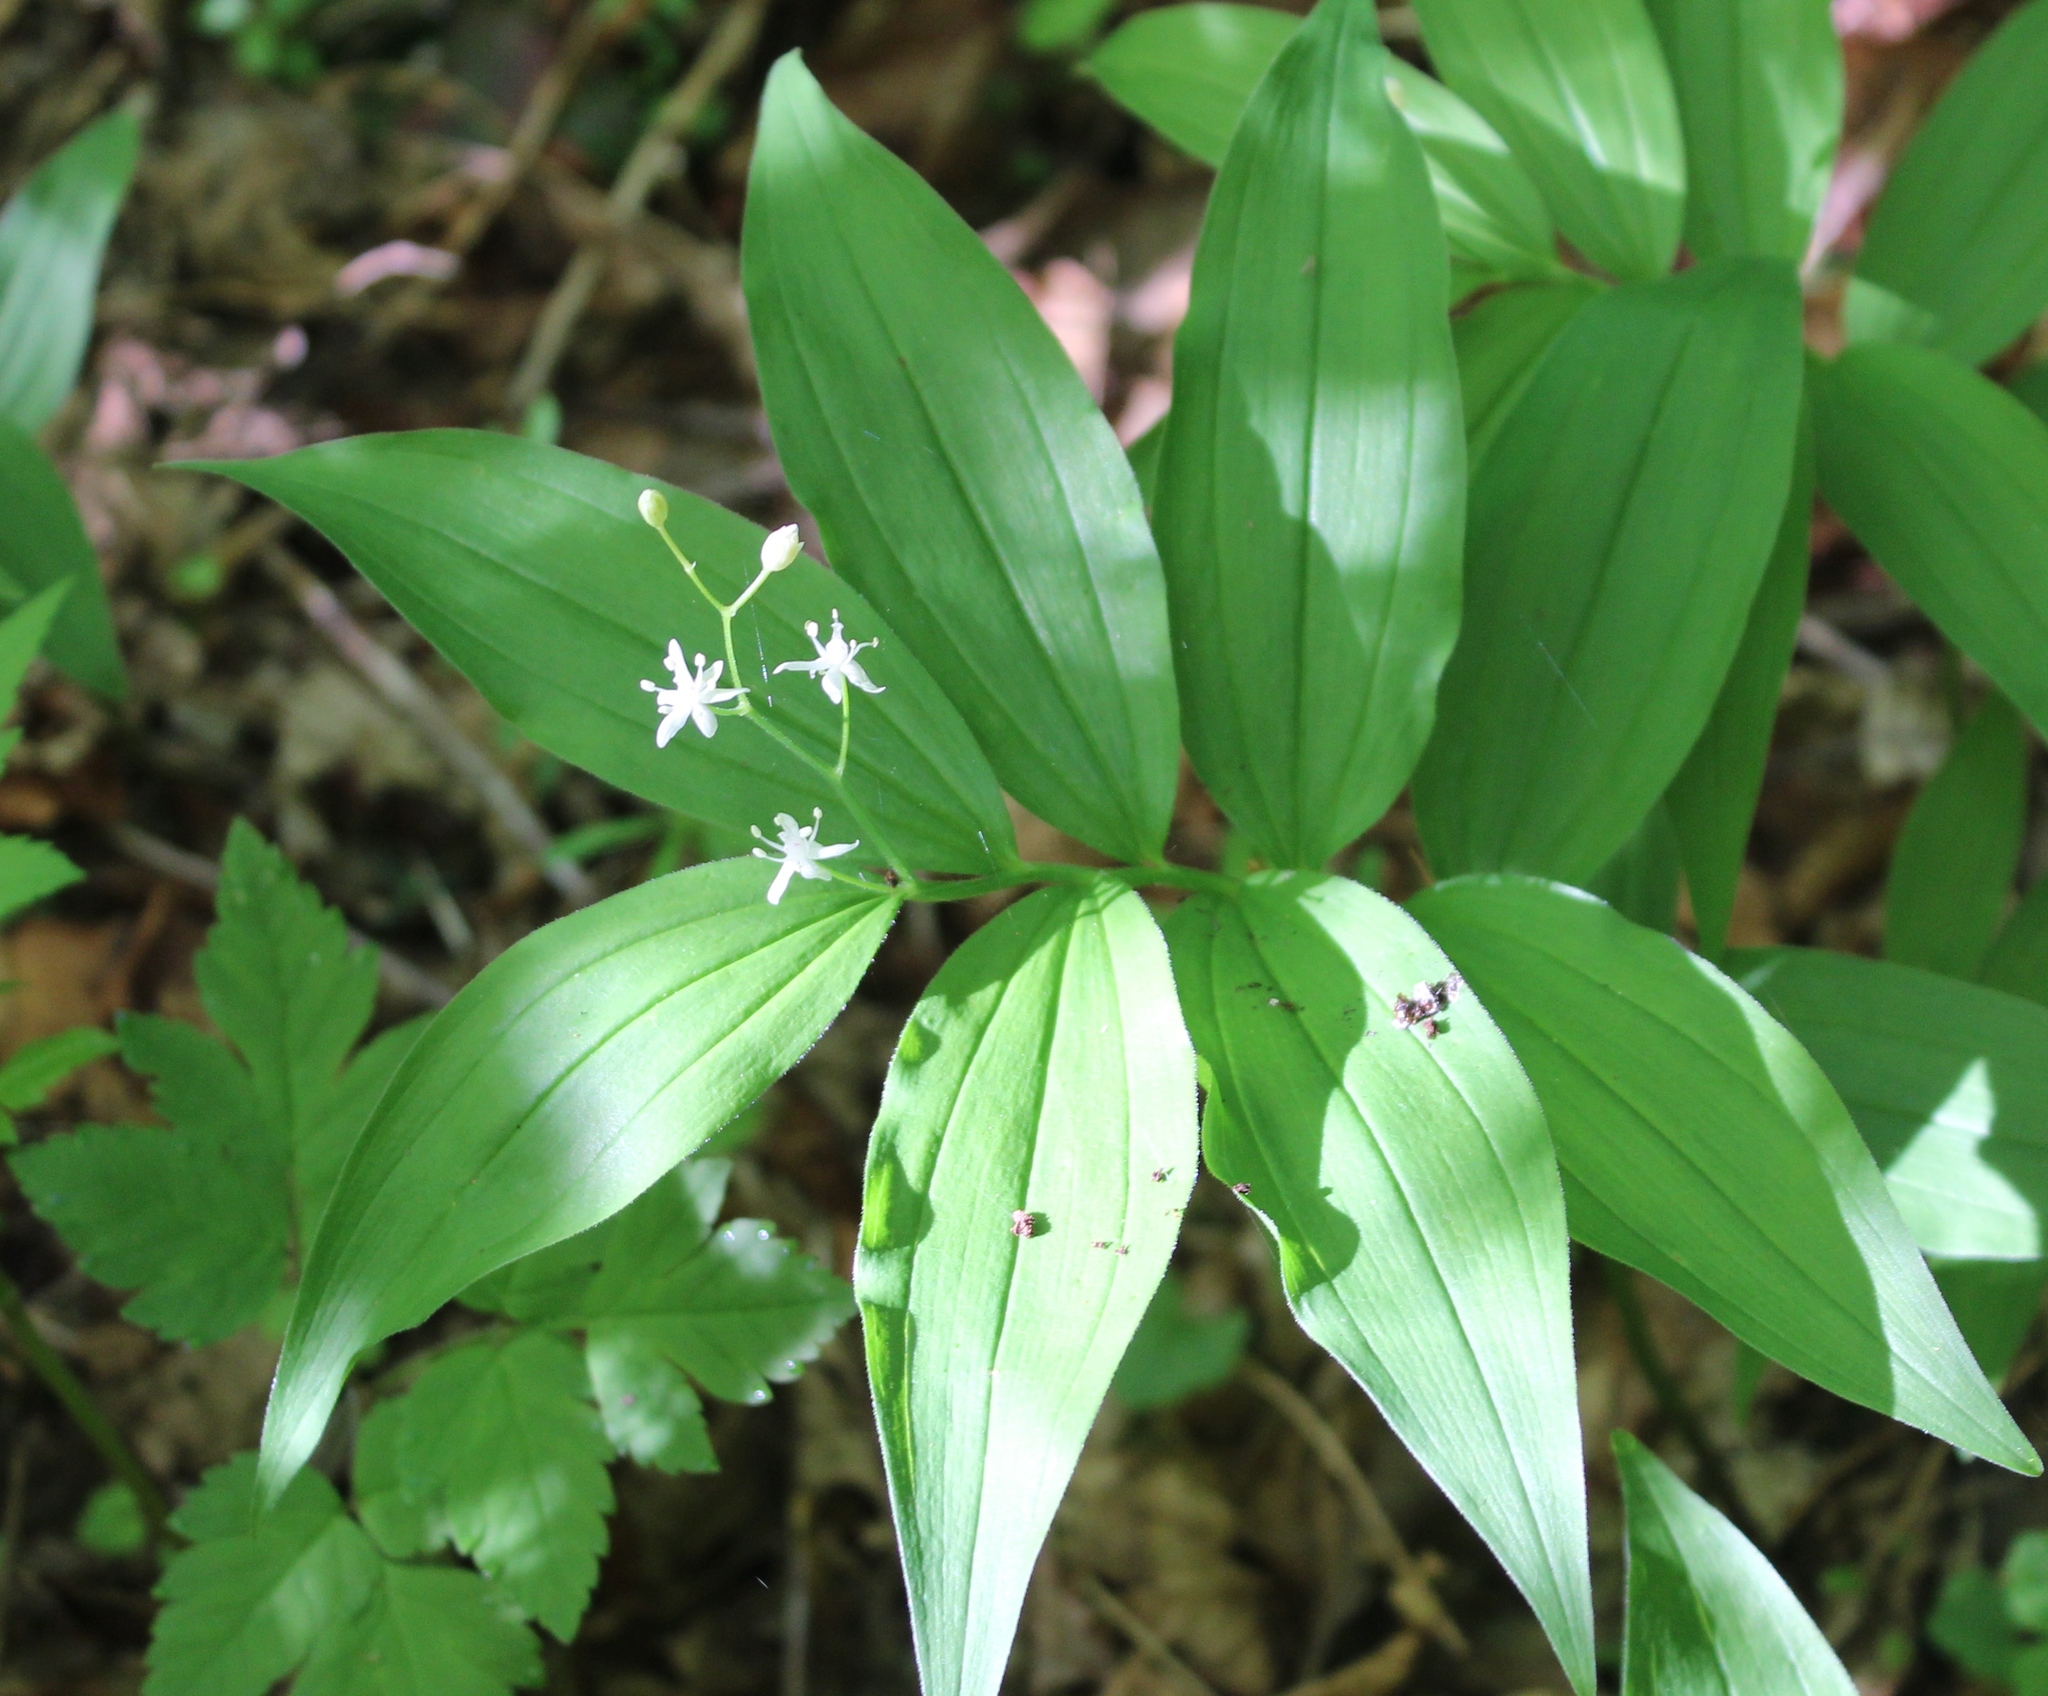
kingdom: Plantae
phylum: Tracheophyta
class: Liliopsida
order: Asparagales
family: Asparagaceae
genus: Maianthemum
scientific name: Maianthemum stellatum
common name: Little false solomon's seal
